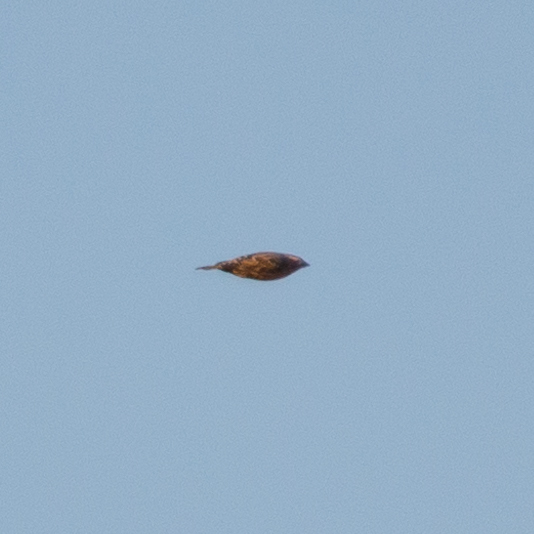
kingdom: Animalia
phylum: Chordata
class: Aves
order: Passeriformes
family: Passeridae
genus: Petronia
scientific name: Petronia petronia
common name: Rock sparrow
